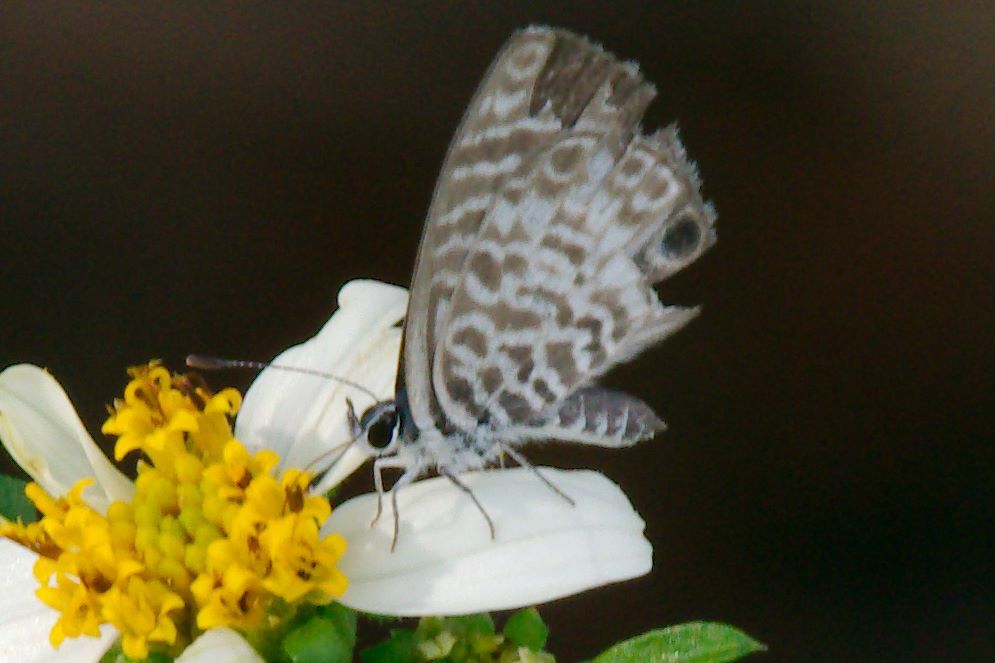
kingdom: Animalia
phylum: Arthropoda
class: Insecta
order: Lepidoptera
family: Lycaenidae
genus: Leptotes
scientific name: Leptotes cassius
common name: Cassius blue
